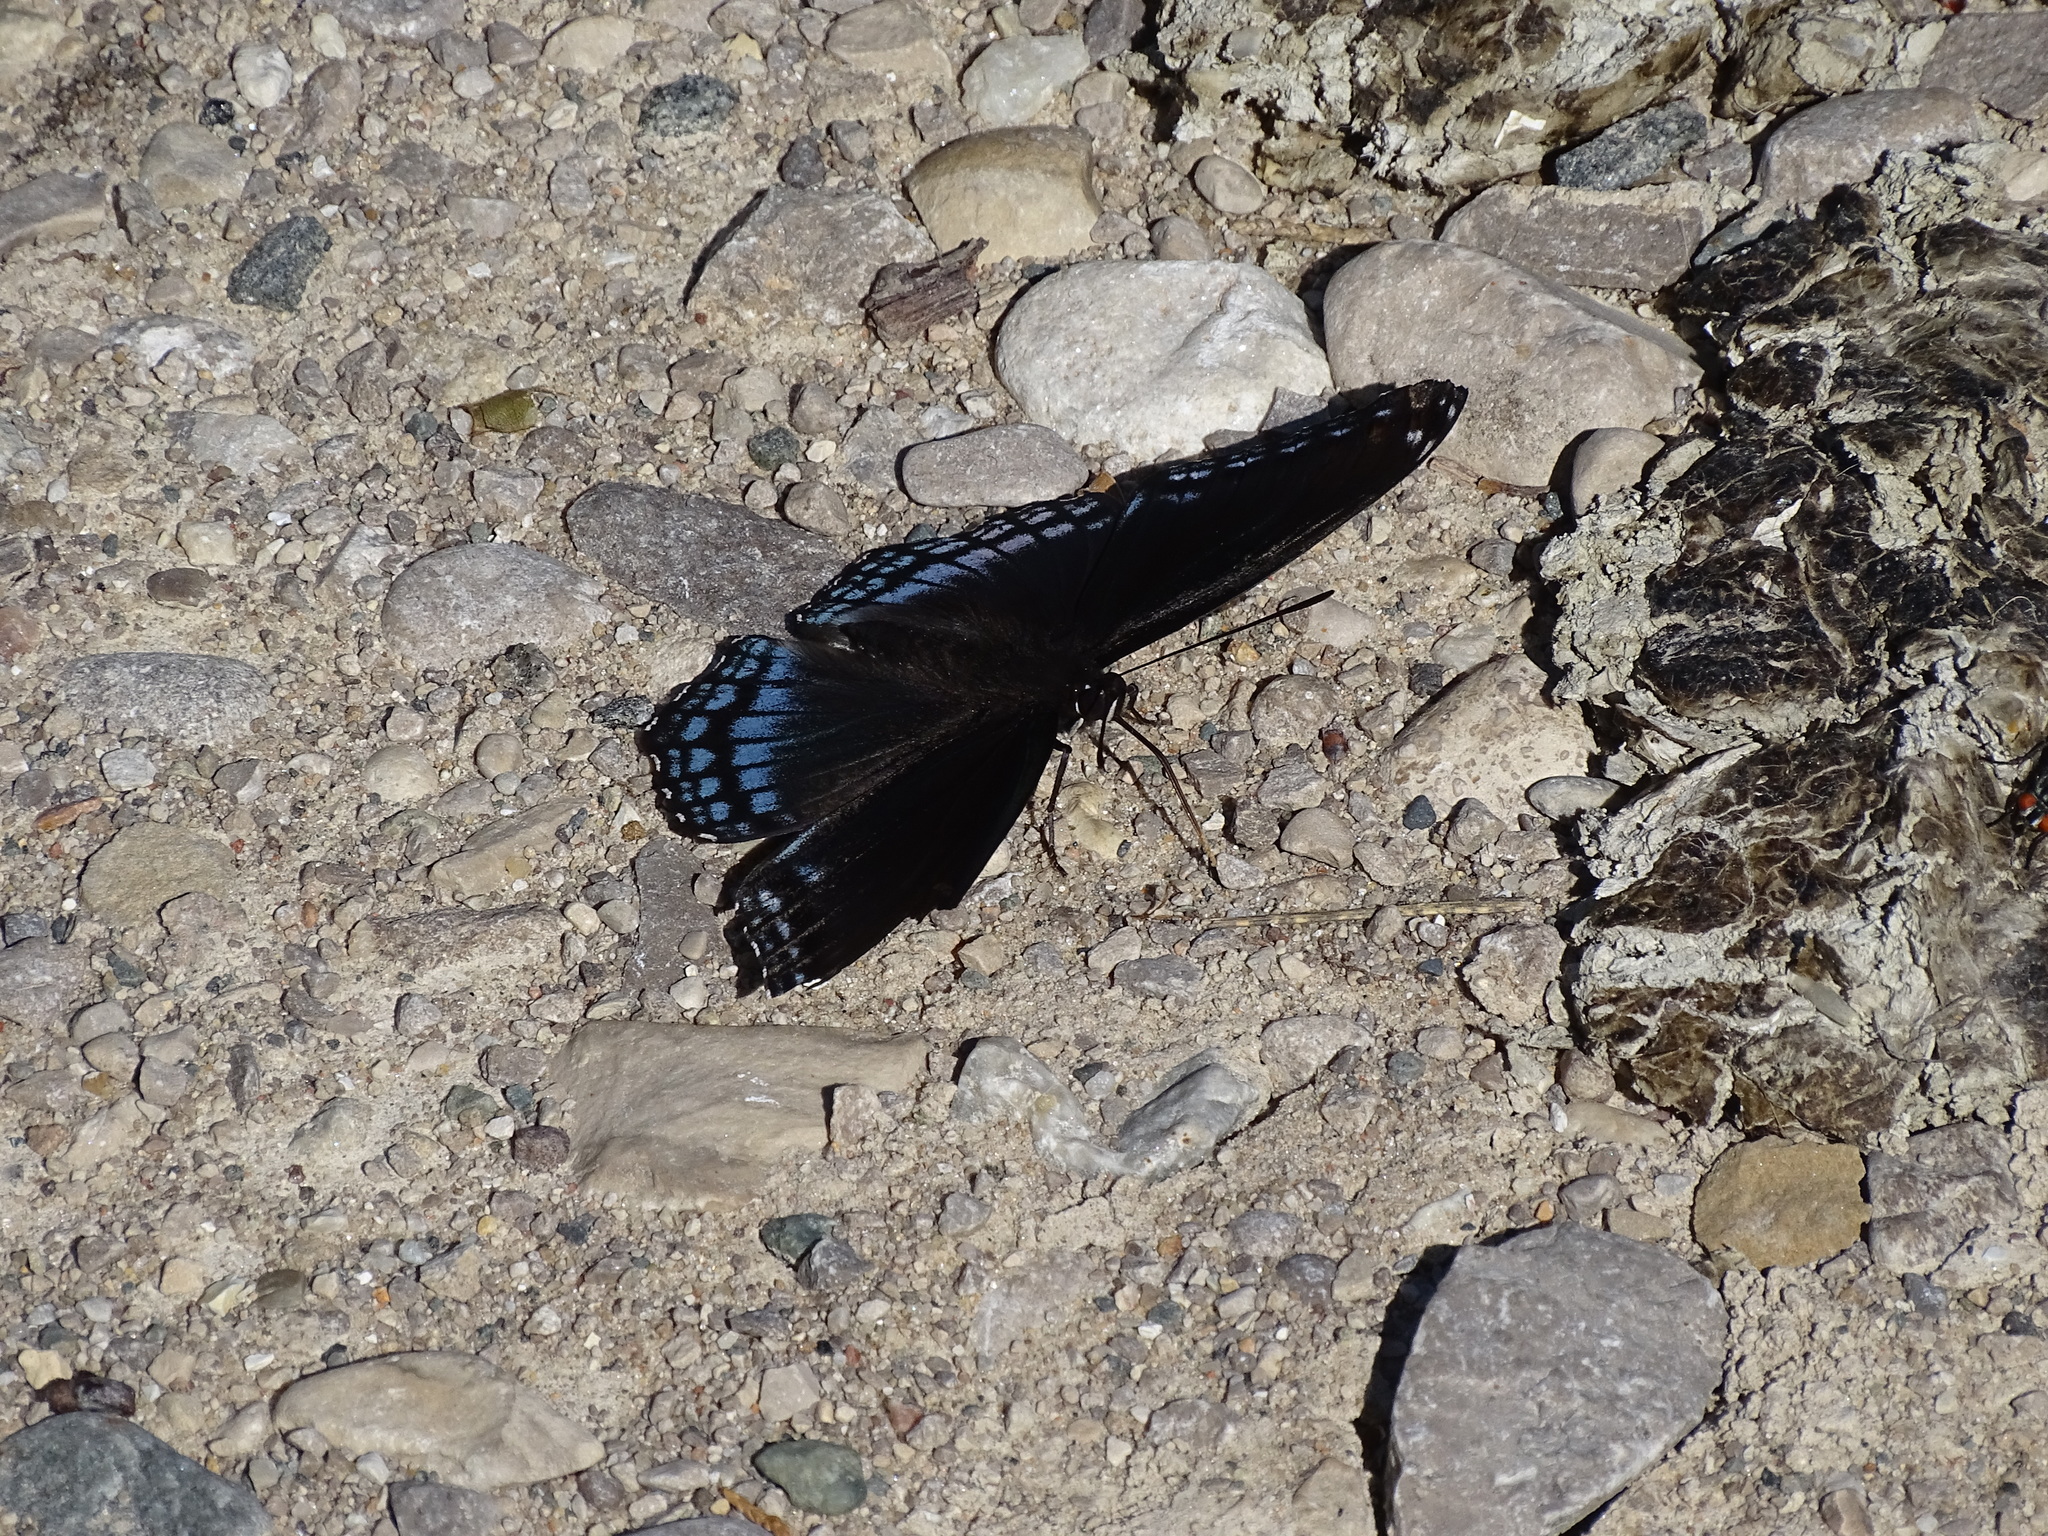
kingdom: Animalia
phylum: Arthropoda
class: Insecta
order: Lepidoptera
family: Nymphalidae
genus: Limenitis
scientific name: Limenitis astyanax
